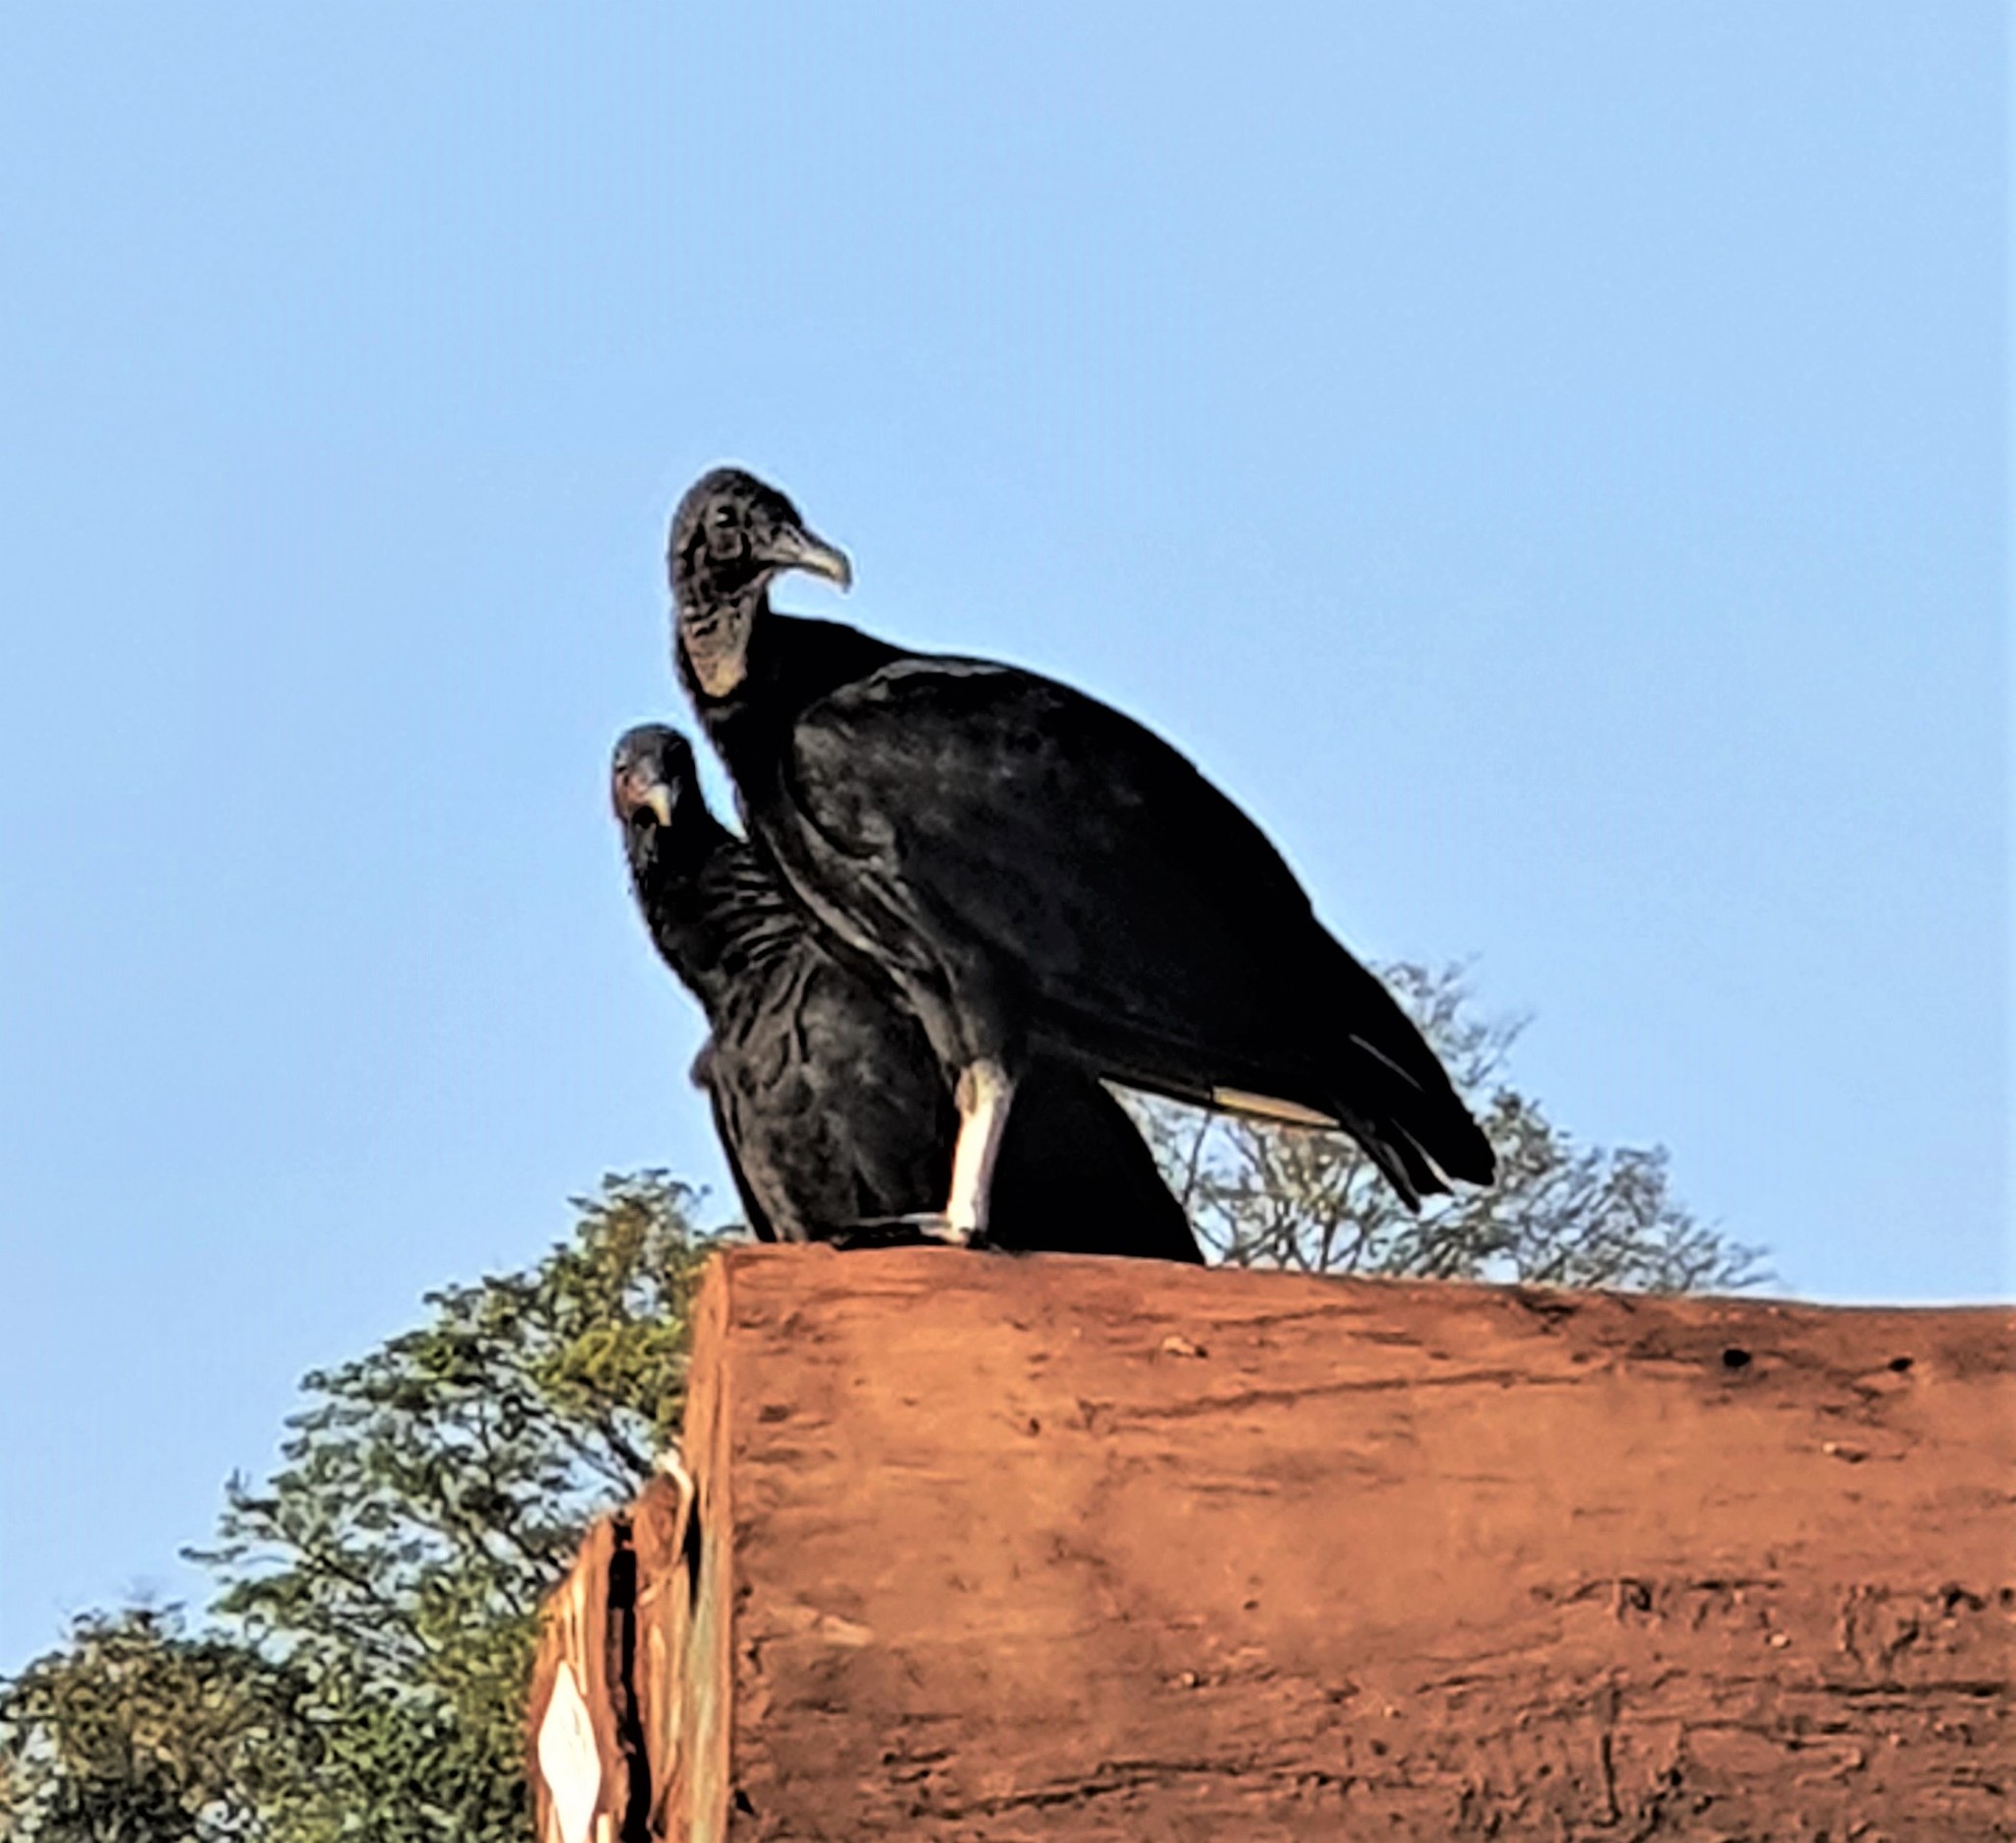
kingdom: Animalia
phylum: Chordata
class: Aves
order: Accipitriformes
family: Cathartidae
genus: Coragyps
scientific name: Coragyps atratus
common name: Black vulture
